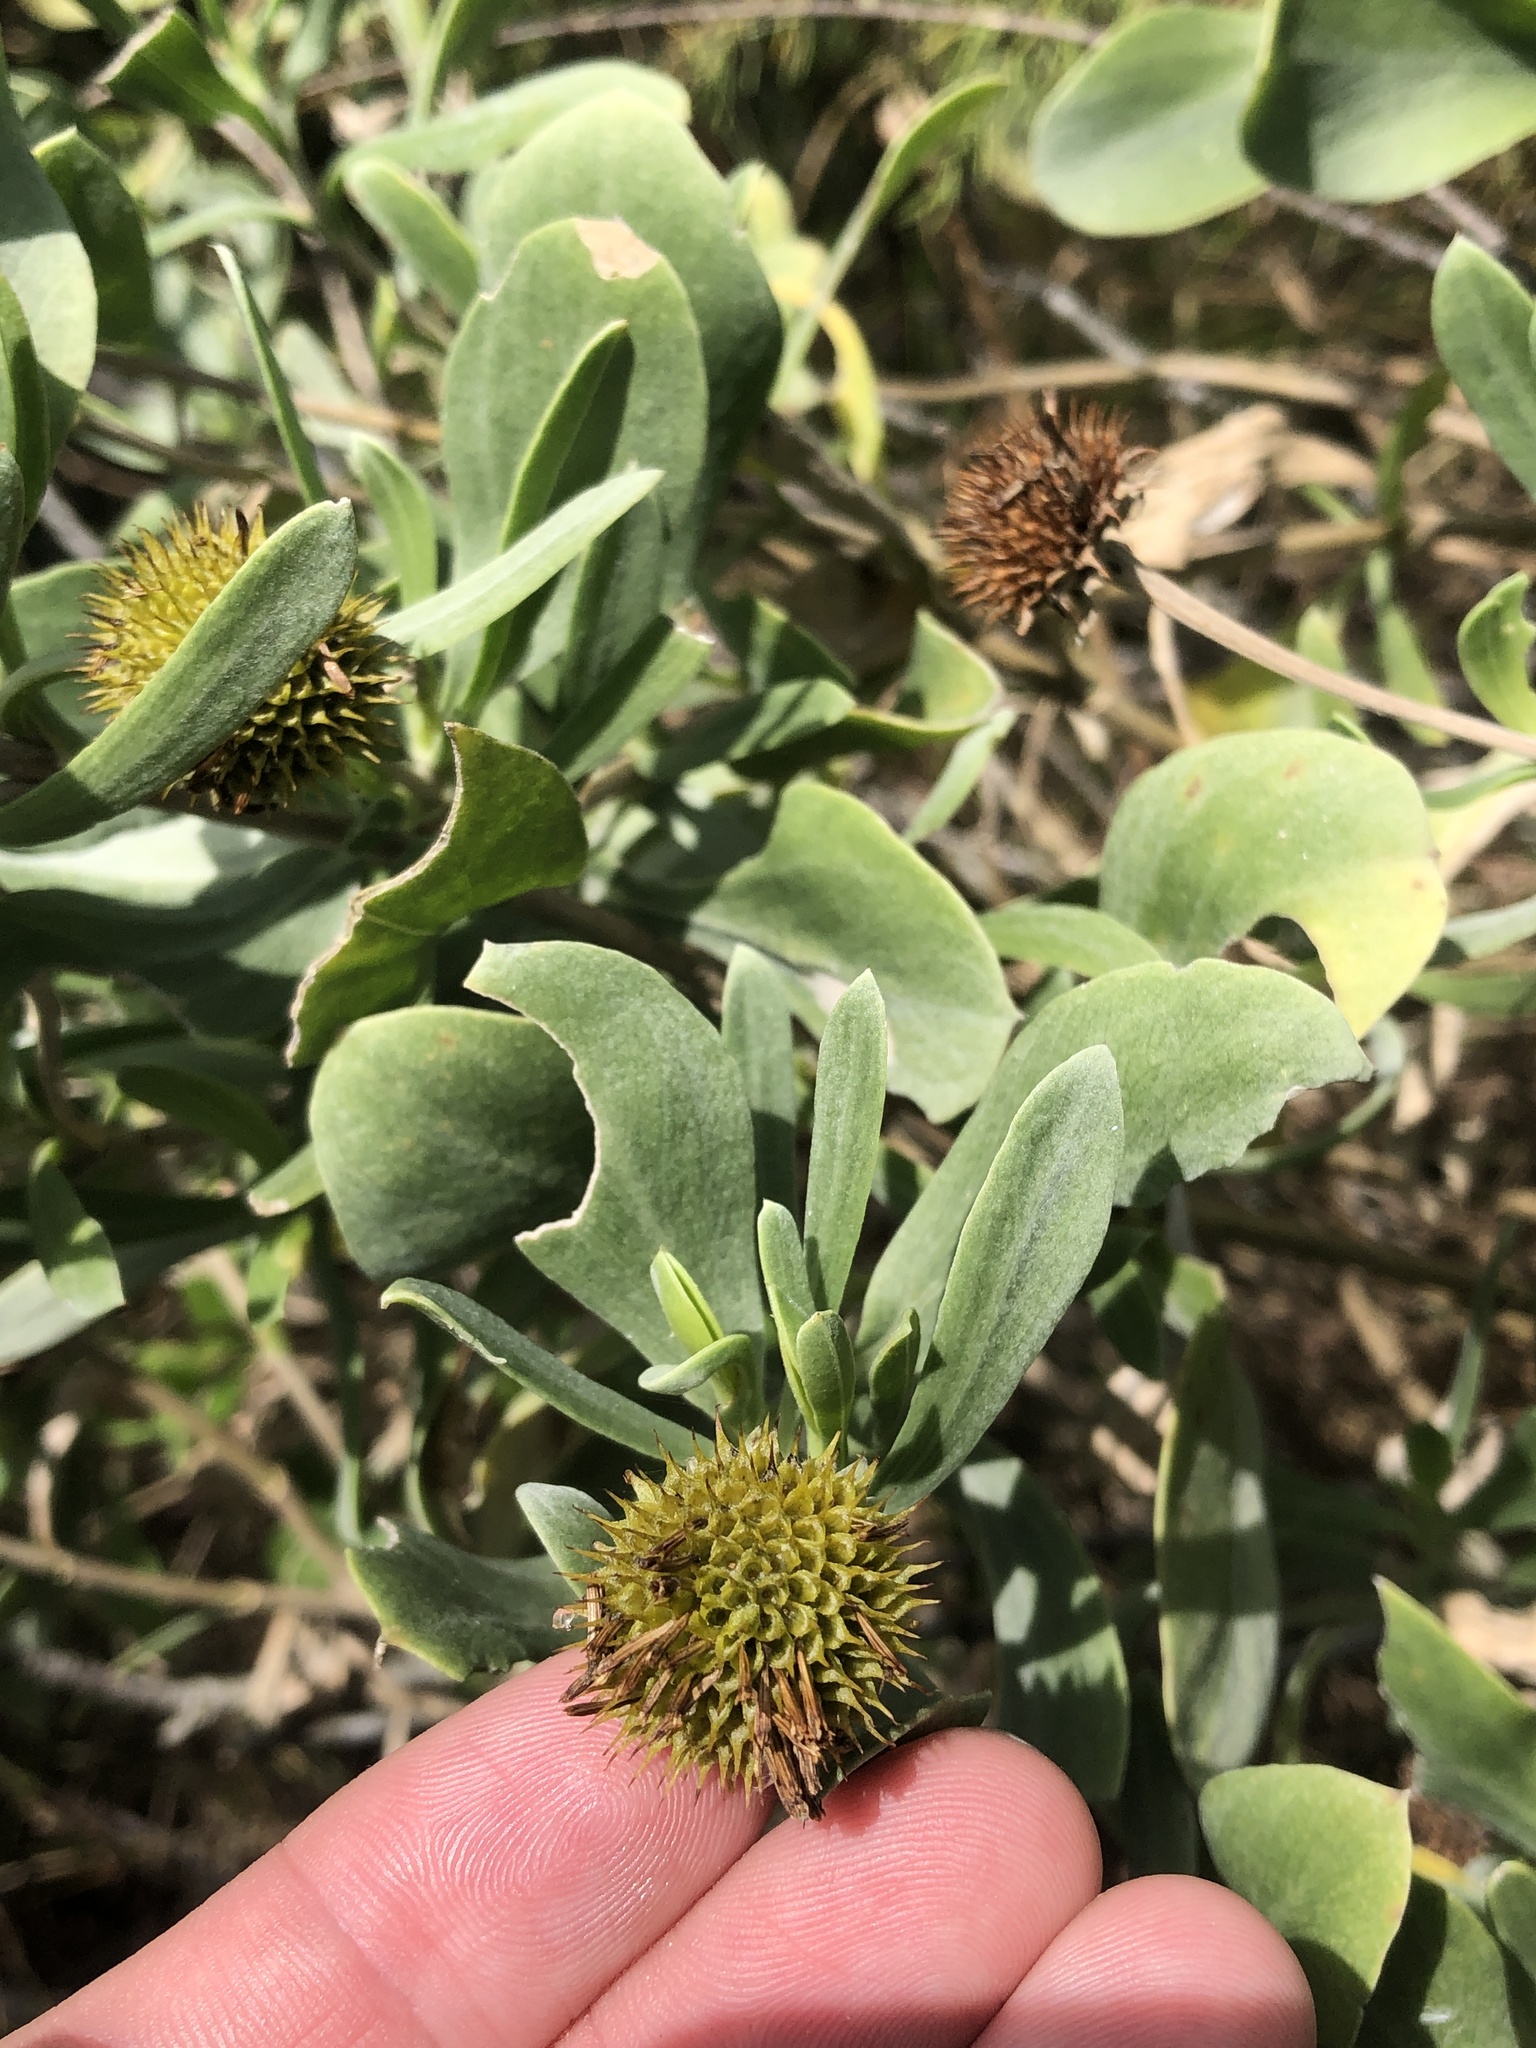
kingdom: Plantae
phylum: Tracheophyta
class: Magnoliopsida
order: Asterales
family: Asteraceae
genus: Borrichia
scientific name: Borrichia frutescens
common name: Sea oxeye
